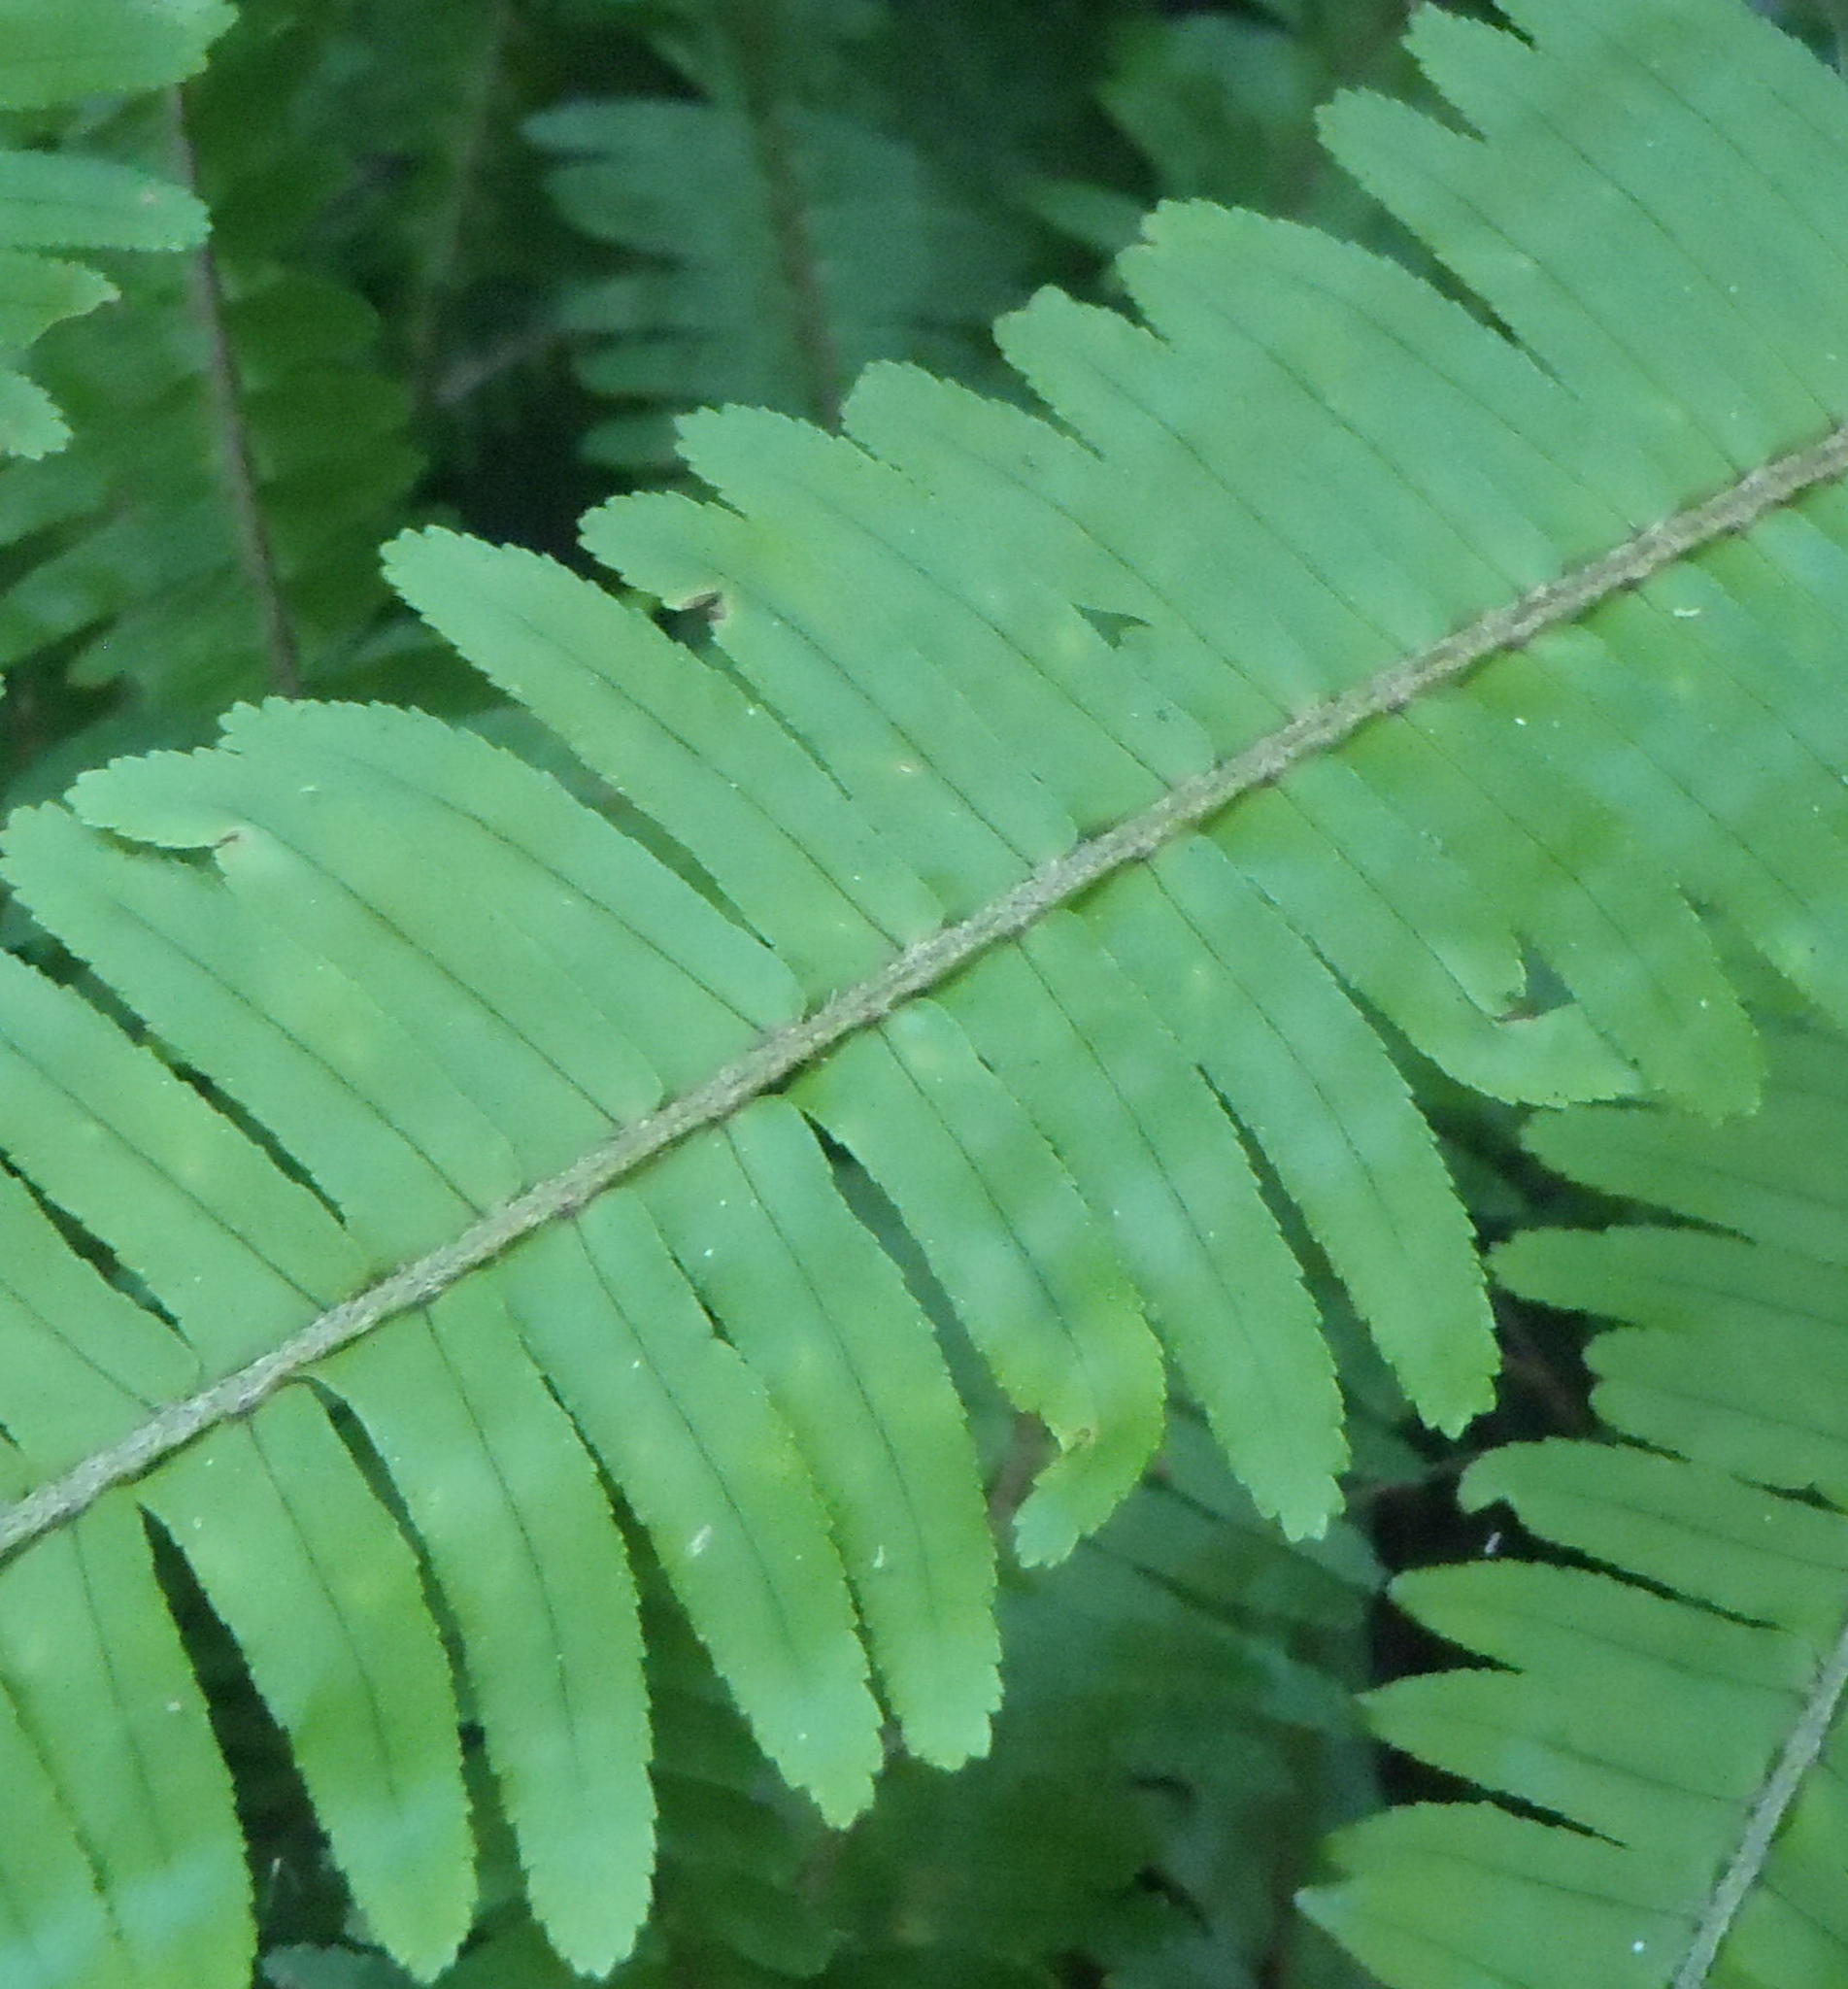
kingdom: Plantae
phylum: Tracheophyta
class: Polypodiopsida
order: Polypodiales
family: Nephrolepidaceae
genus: Nephrolepis
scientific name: Nephrolepis cordifolia
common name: Narrow swordfern
